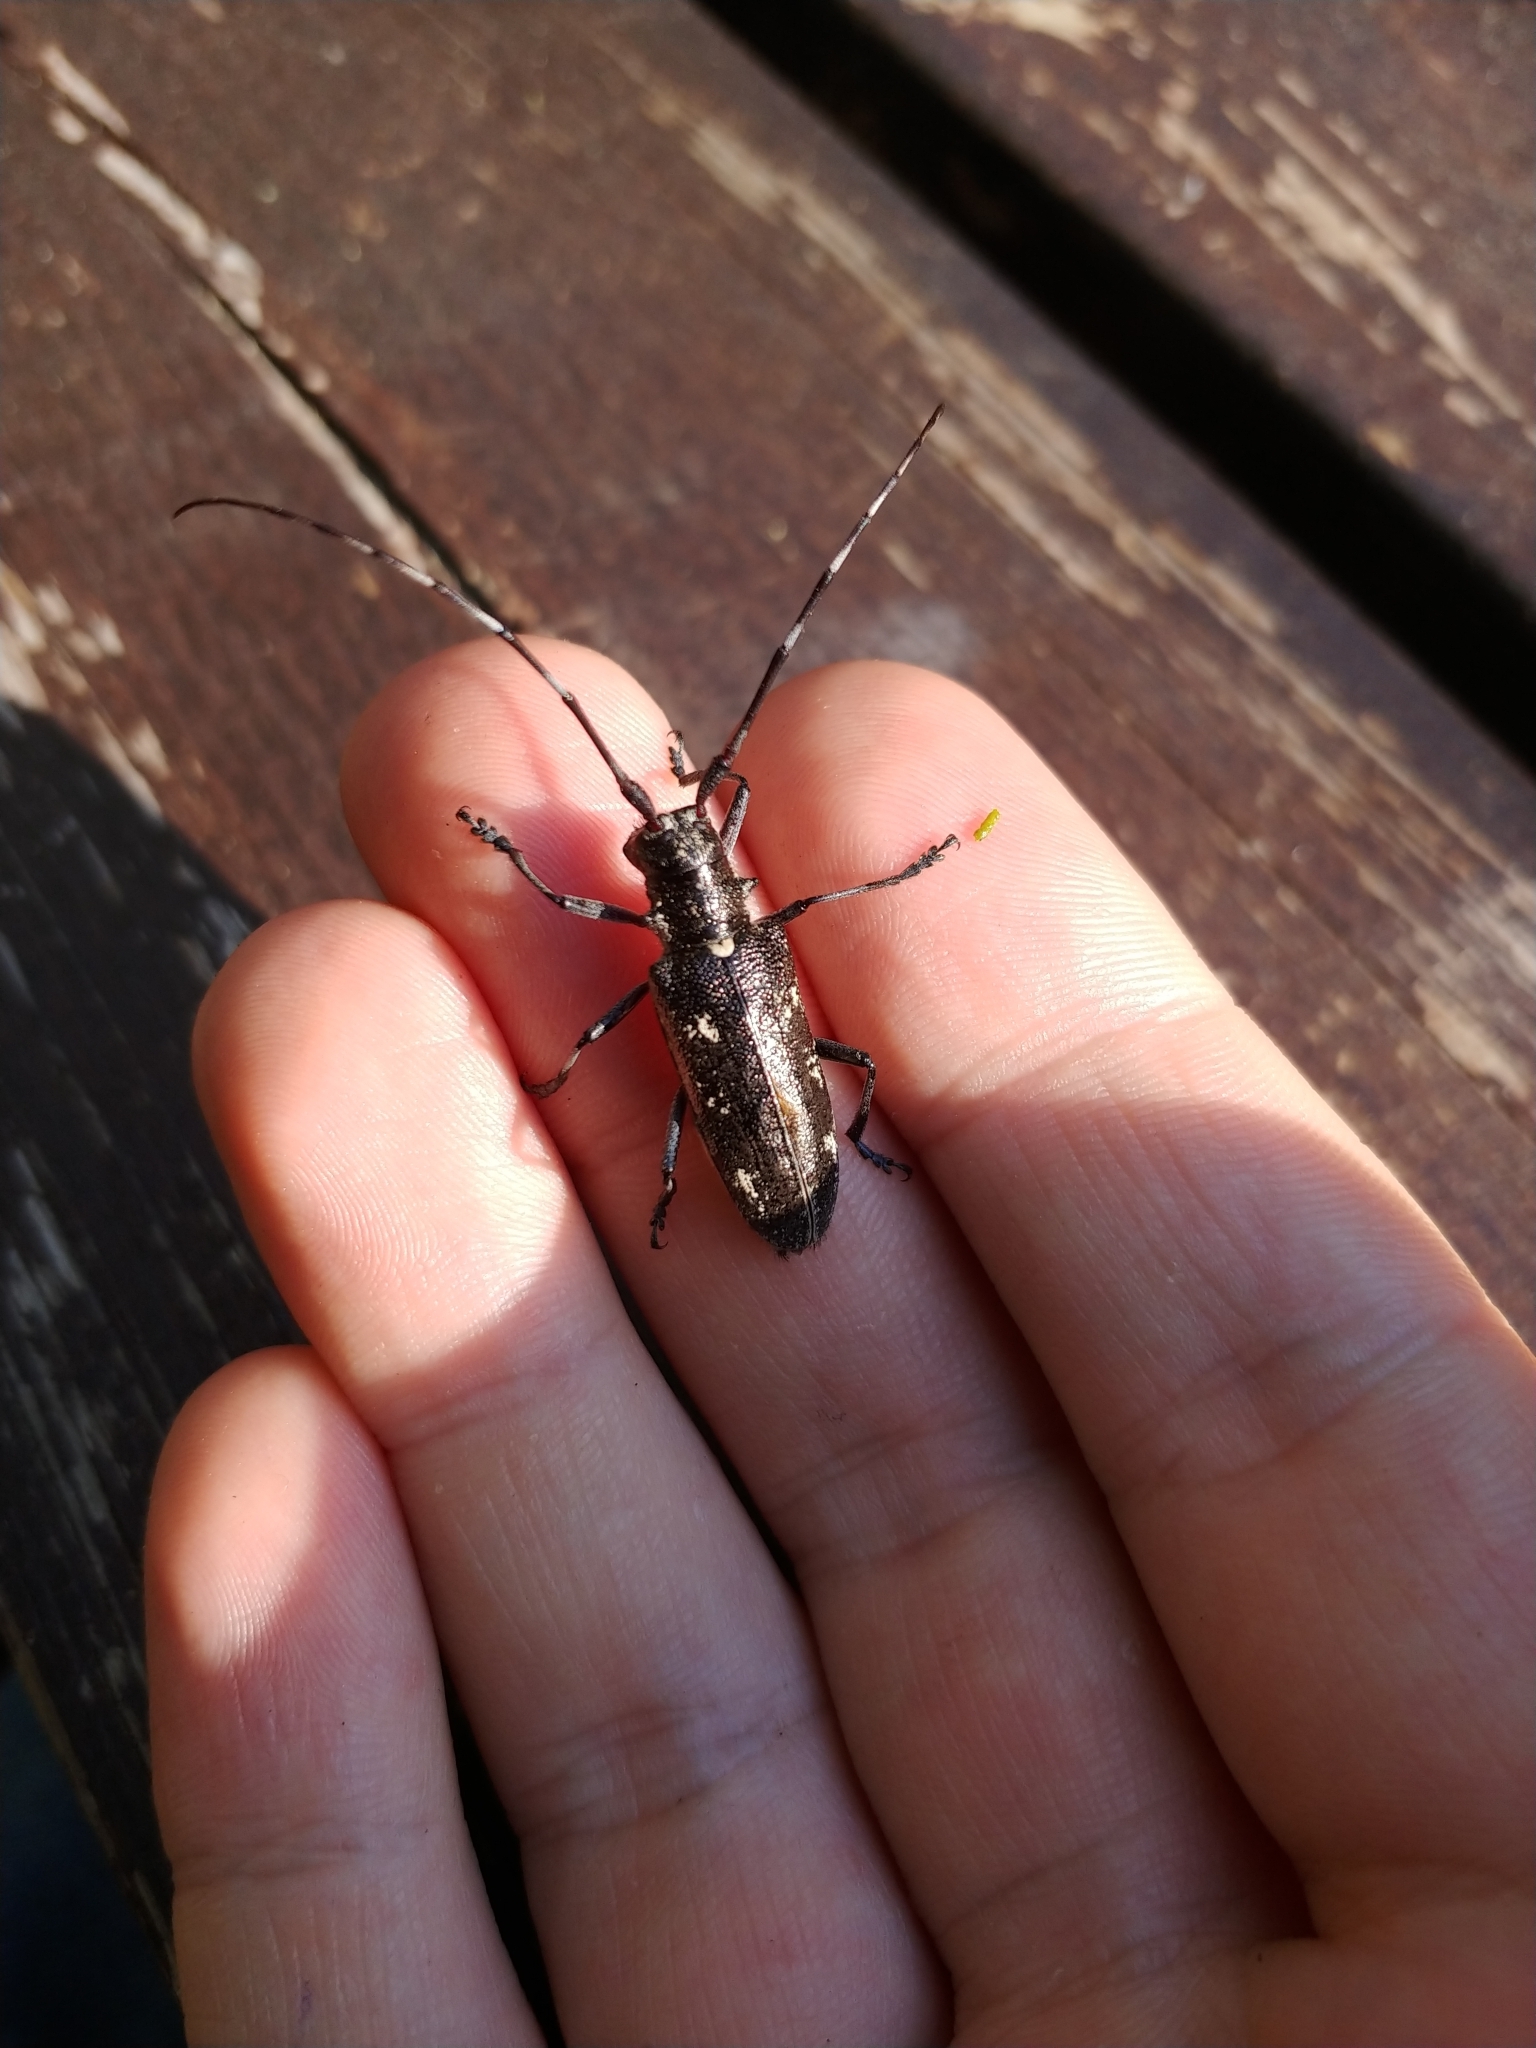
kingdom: Animalia
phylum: Arthropoda
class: Insecta
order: Coleoptera
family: Cerambycidae
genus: Monochamus
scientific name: Monochamus scutellatus
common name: White-spotted sawyer beetle
